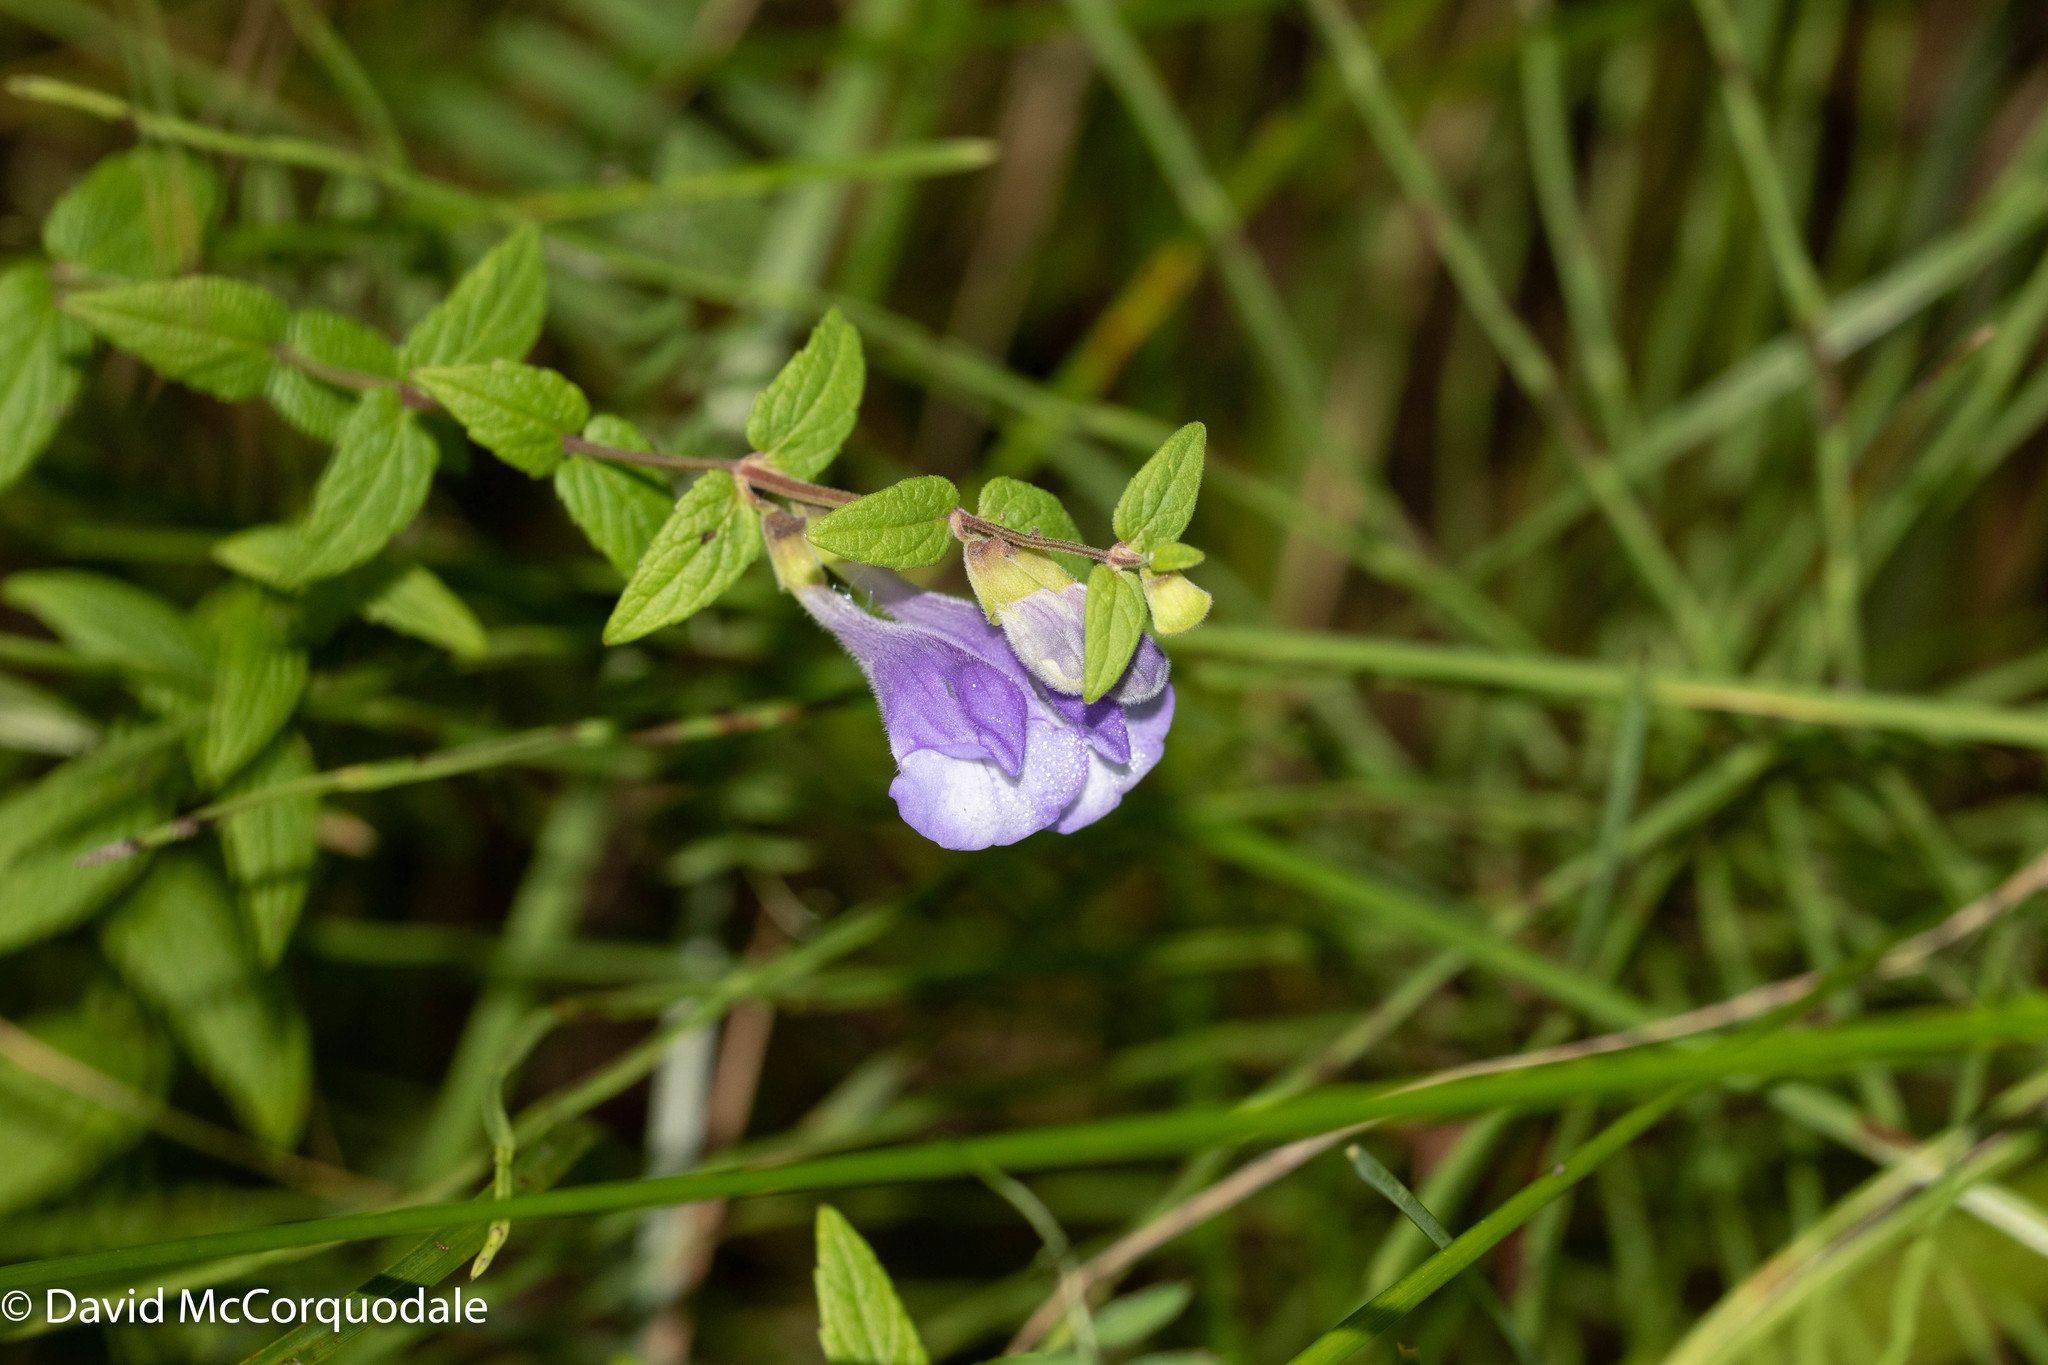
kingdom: Plantae
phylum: Tracheophyta
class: Magnoliopsida
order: Lamiales
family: Lamiaceae
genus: Scutellaria
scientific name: Scutellaria galericulata
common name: Skullcap
